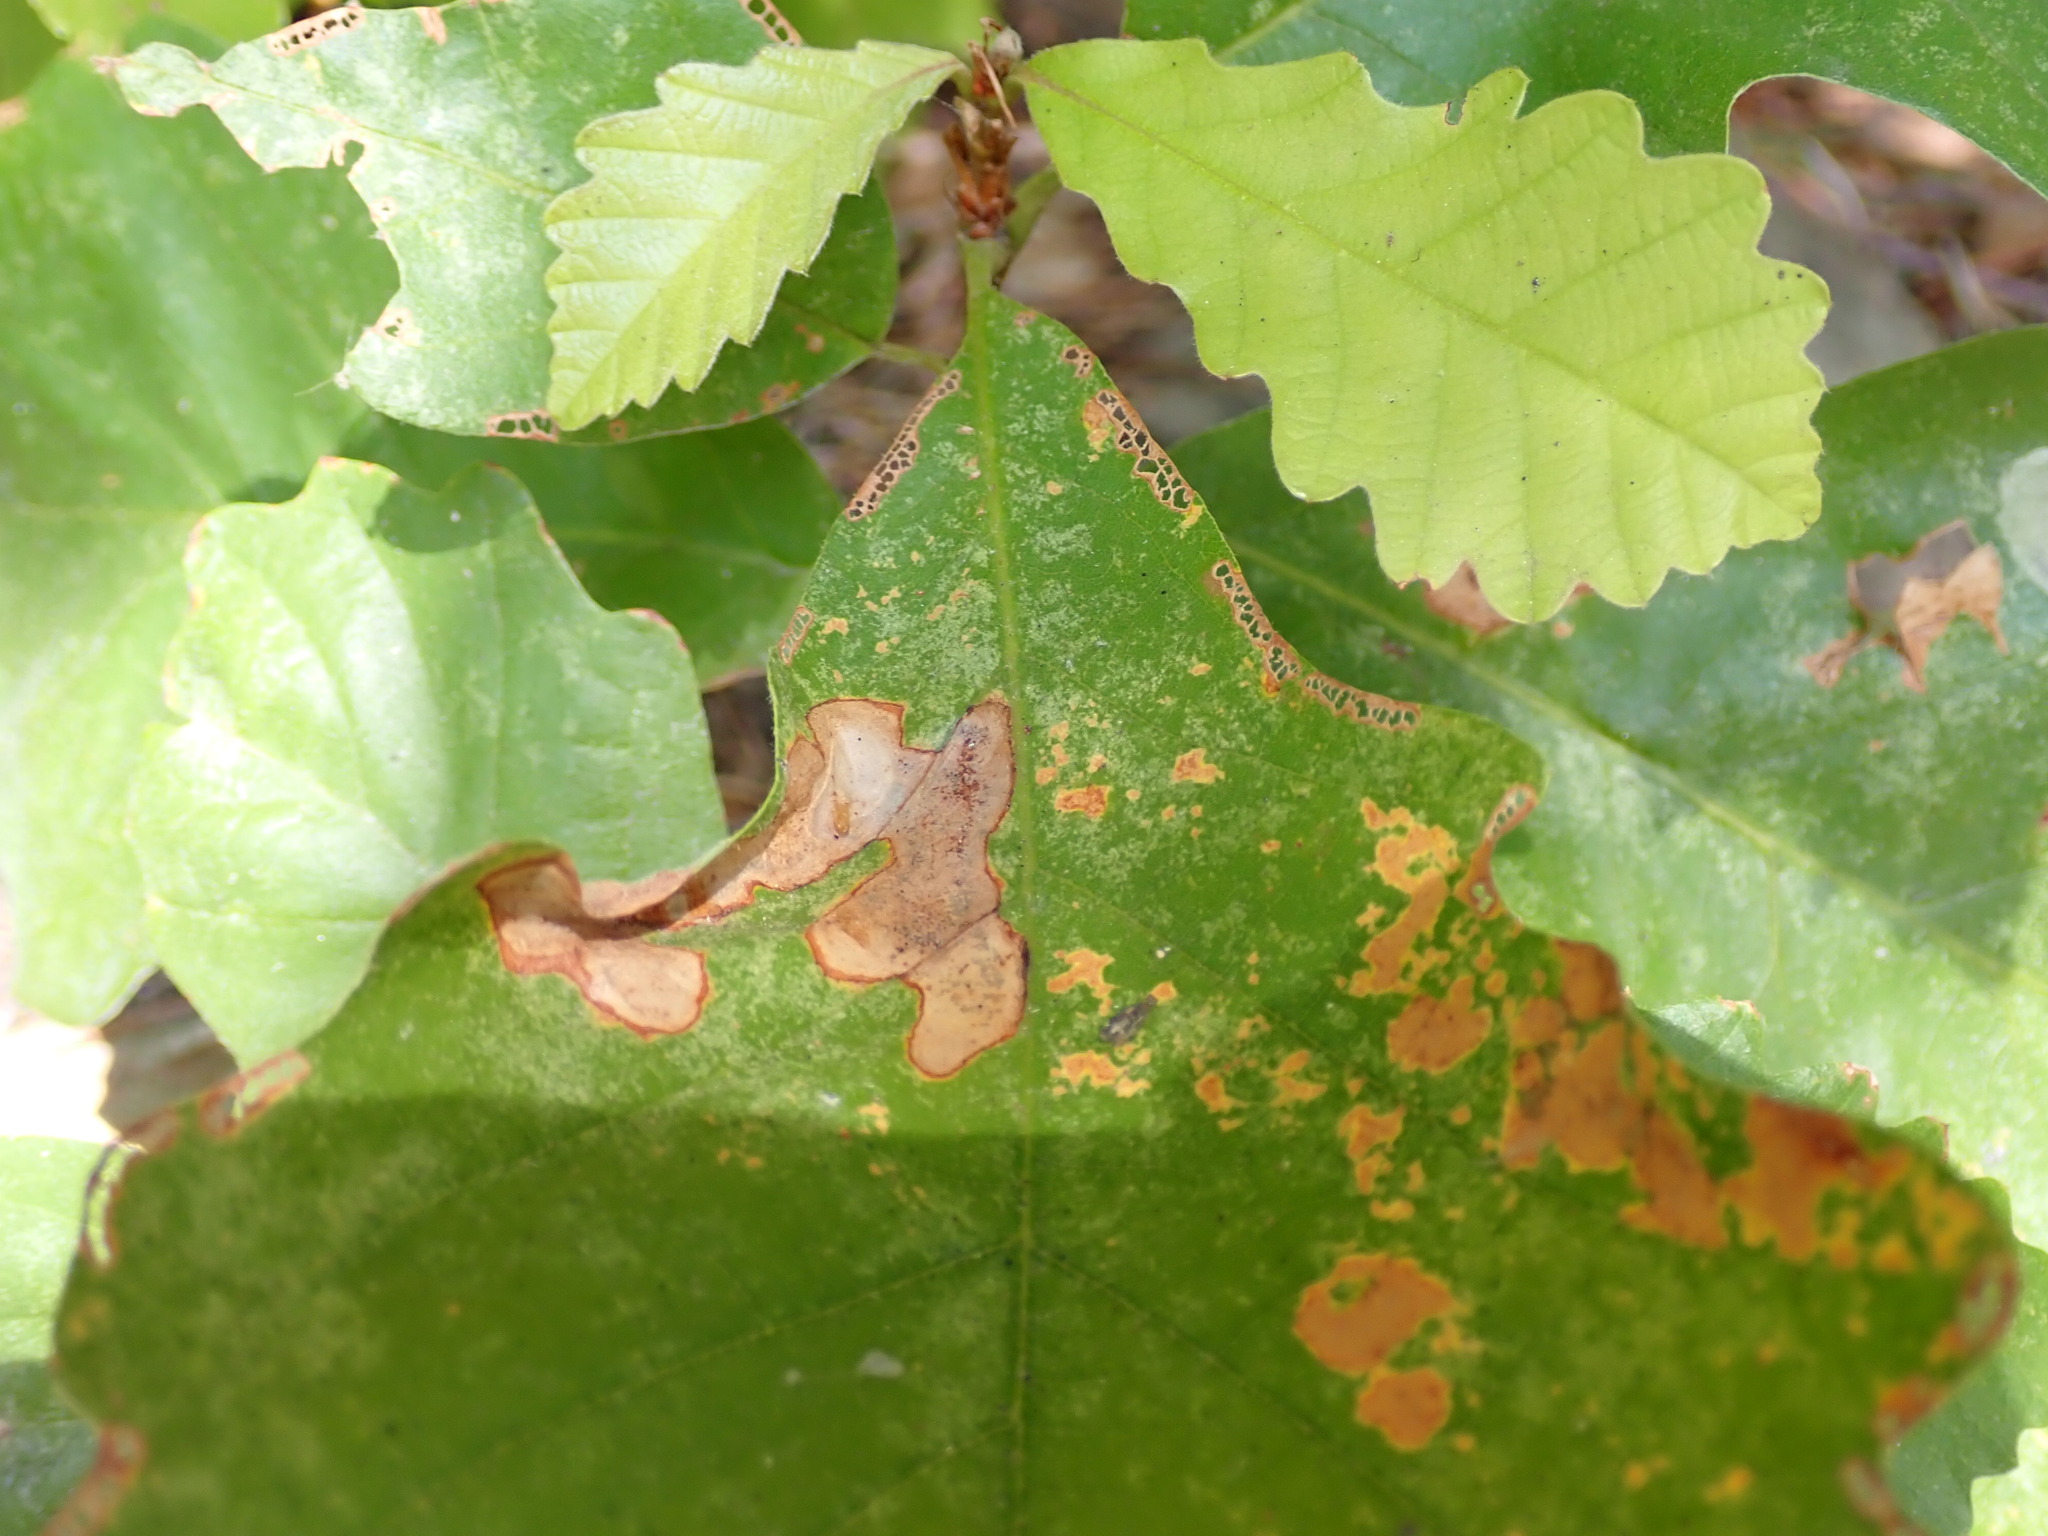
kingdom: Animalia
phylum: Arthropoda
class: Insecta
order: Lepidoptera
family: Gracillariidae
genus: Cameraria
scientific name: Cameraria
